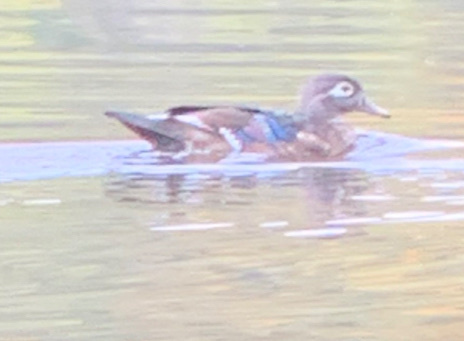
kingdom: Animalia
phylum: Chordata
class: Aves
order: Anseriformes
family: Anatidae
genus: Aix
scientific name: Aix sponsa
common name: Wood duck
